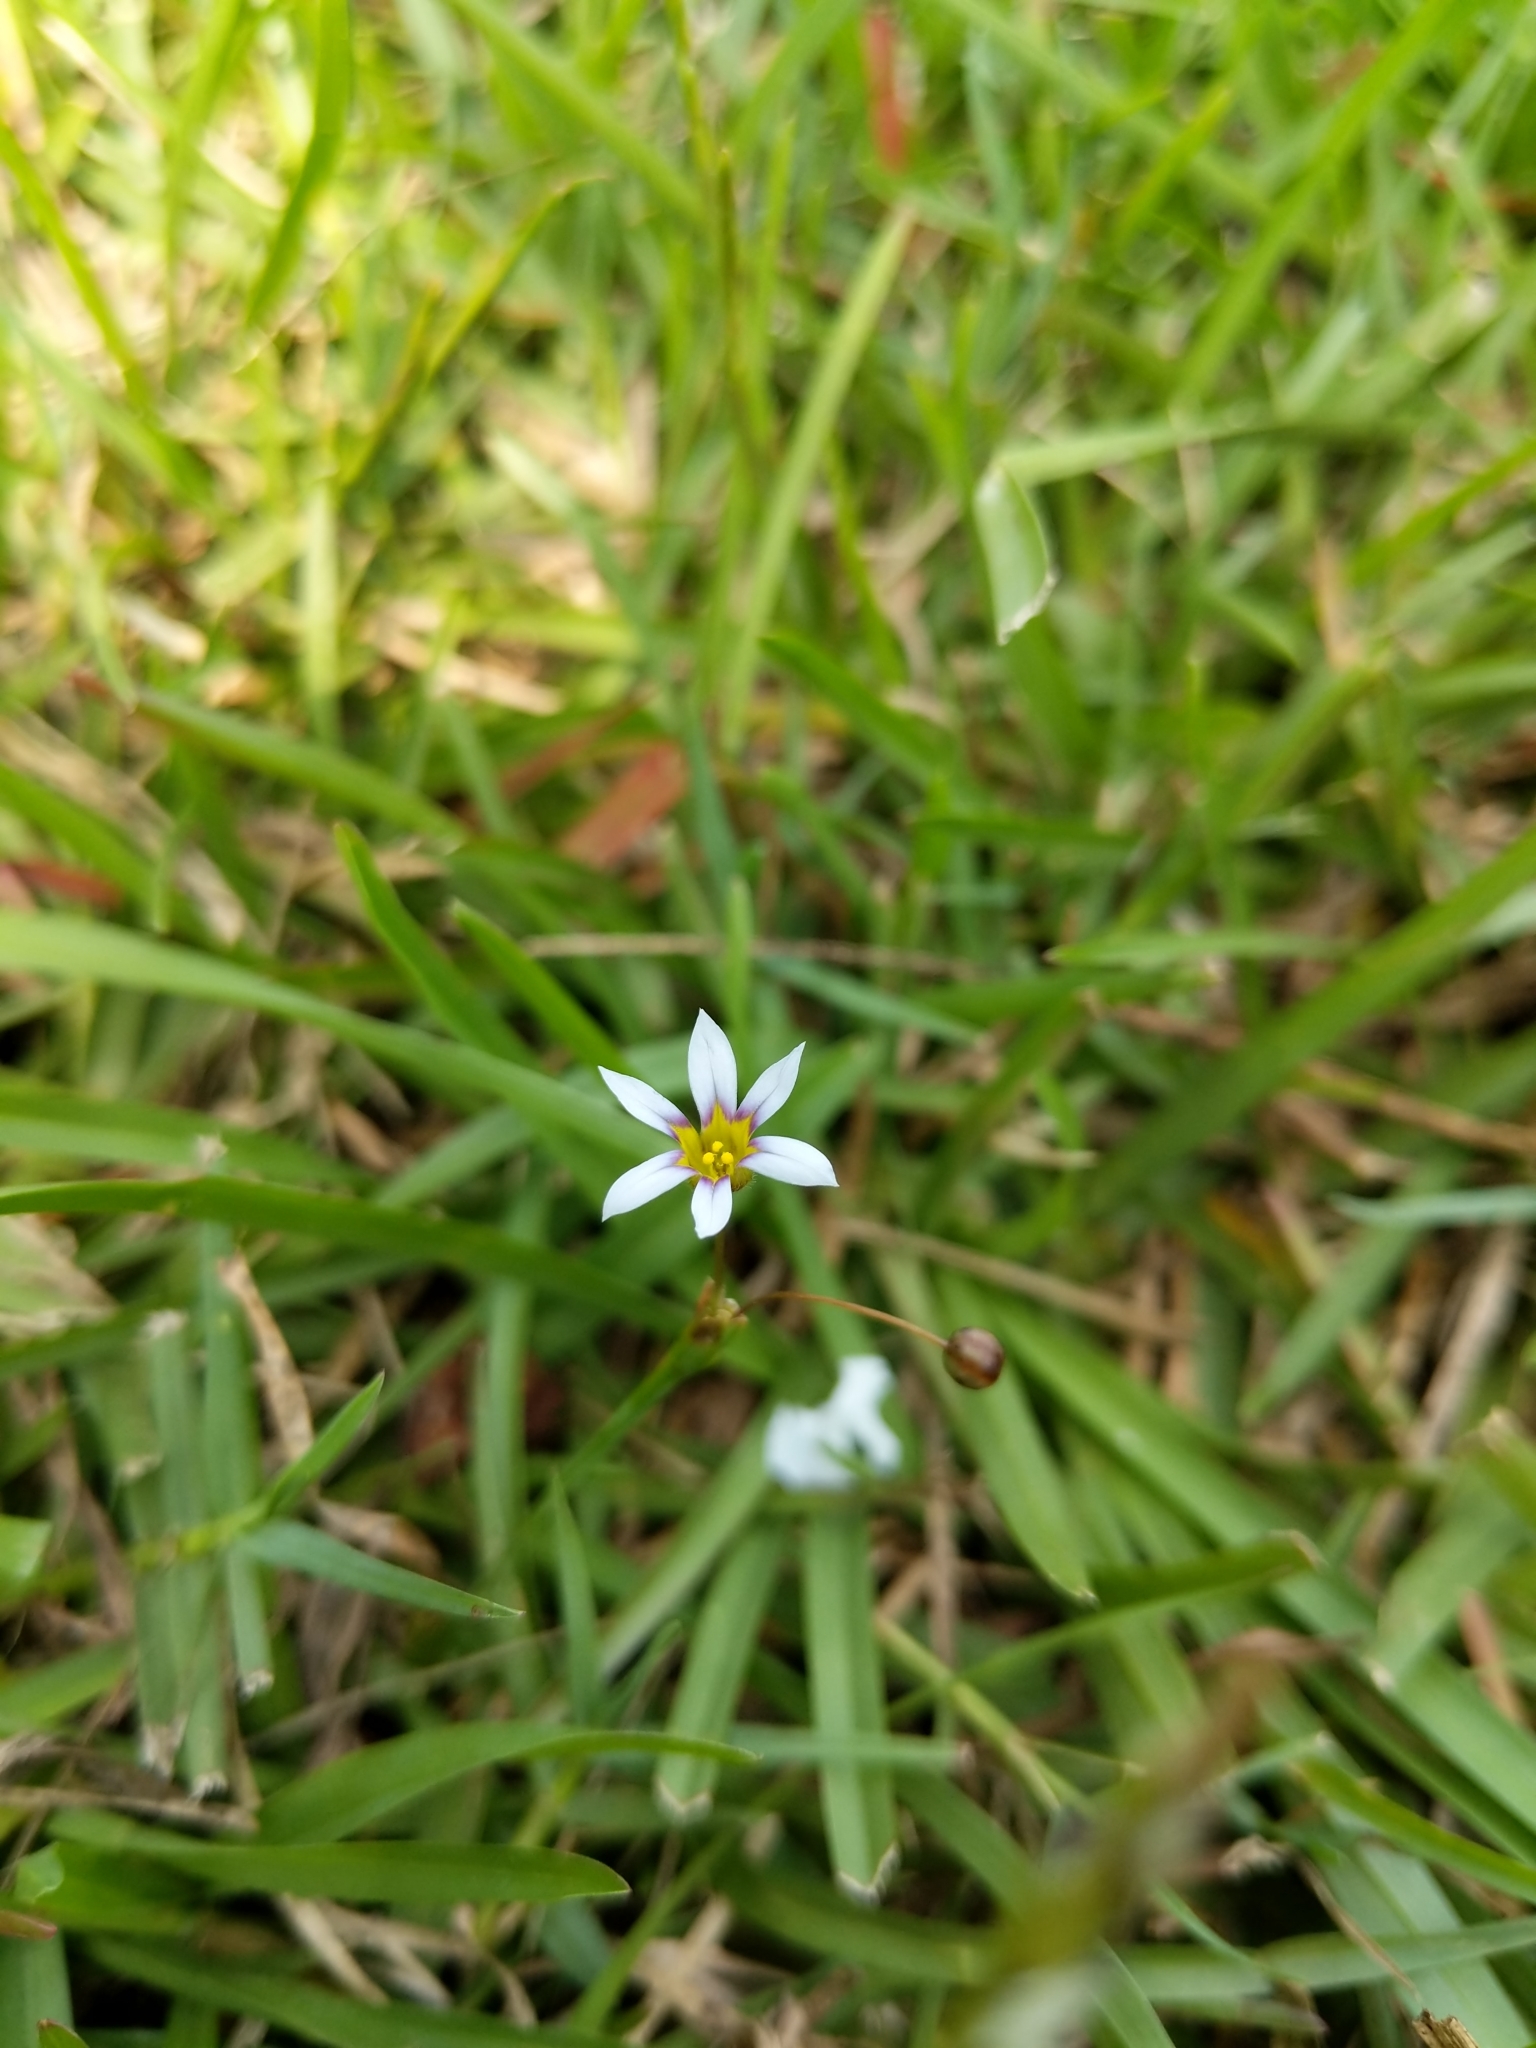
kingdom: Plantae
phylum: Tracheophyta
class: Liliopsida
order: Asparagales
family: Iridaceae
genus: Sisyrinchium
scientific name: Sisyrinchium micranthum
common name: Bermuda pigroot
